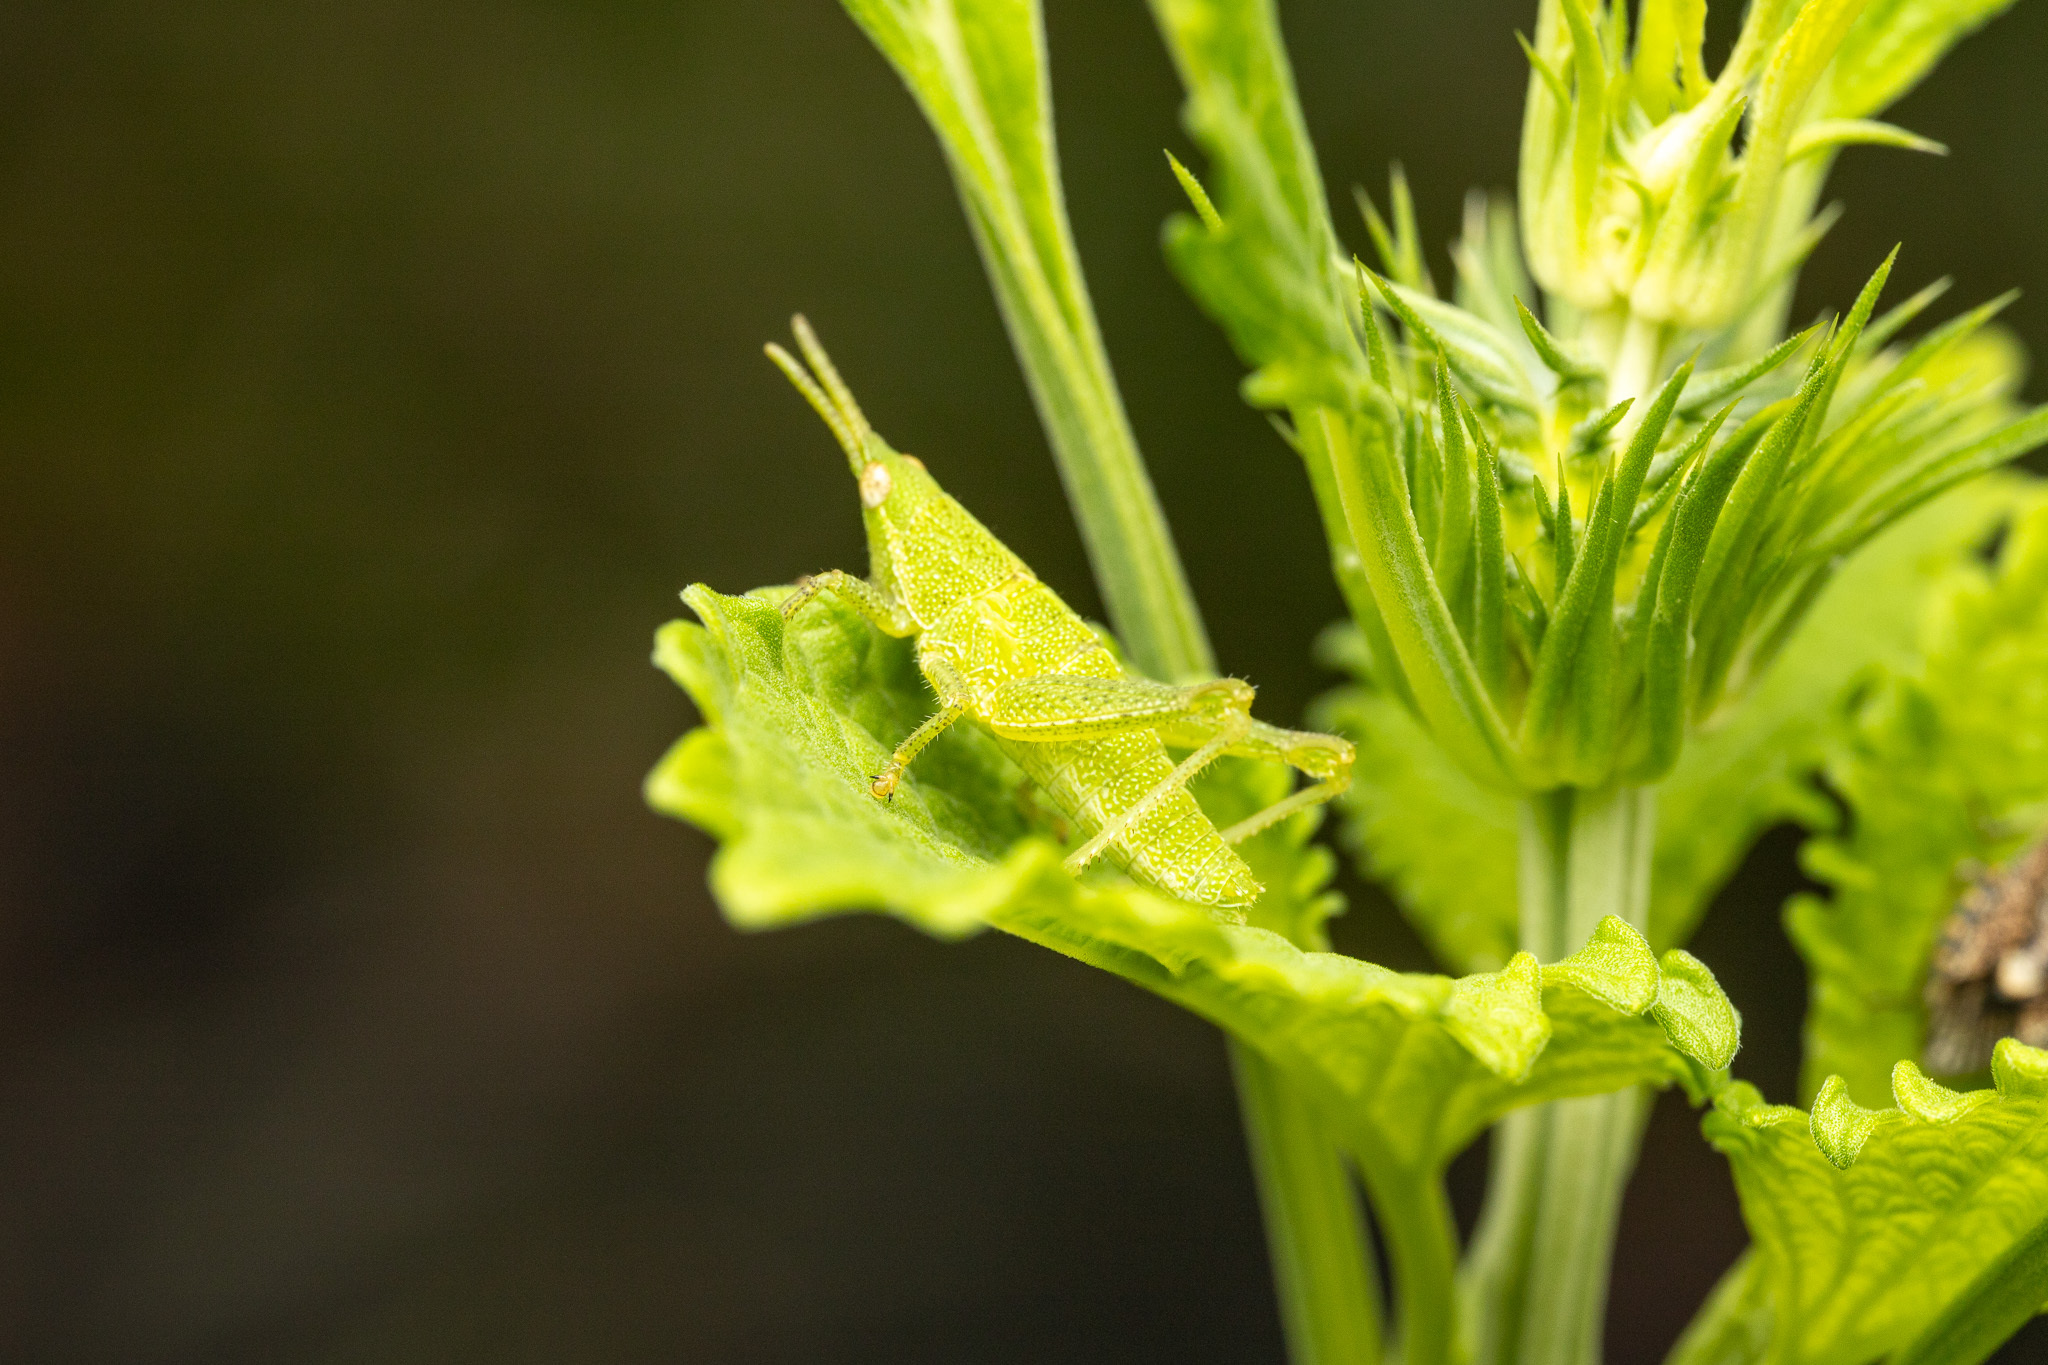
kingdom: Animalia
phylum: Arthropoda
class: Insecta
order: Orthoptera
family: Pyrgomorphidae
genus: Sphenarium
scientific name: Sphenarium purpurascens
